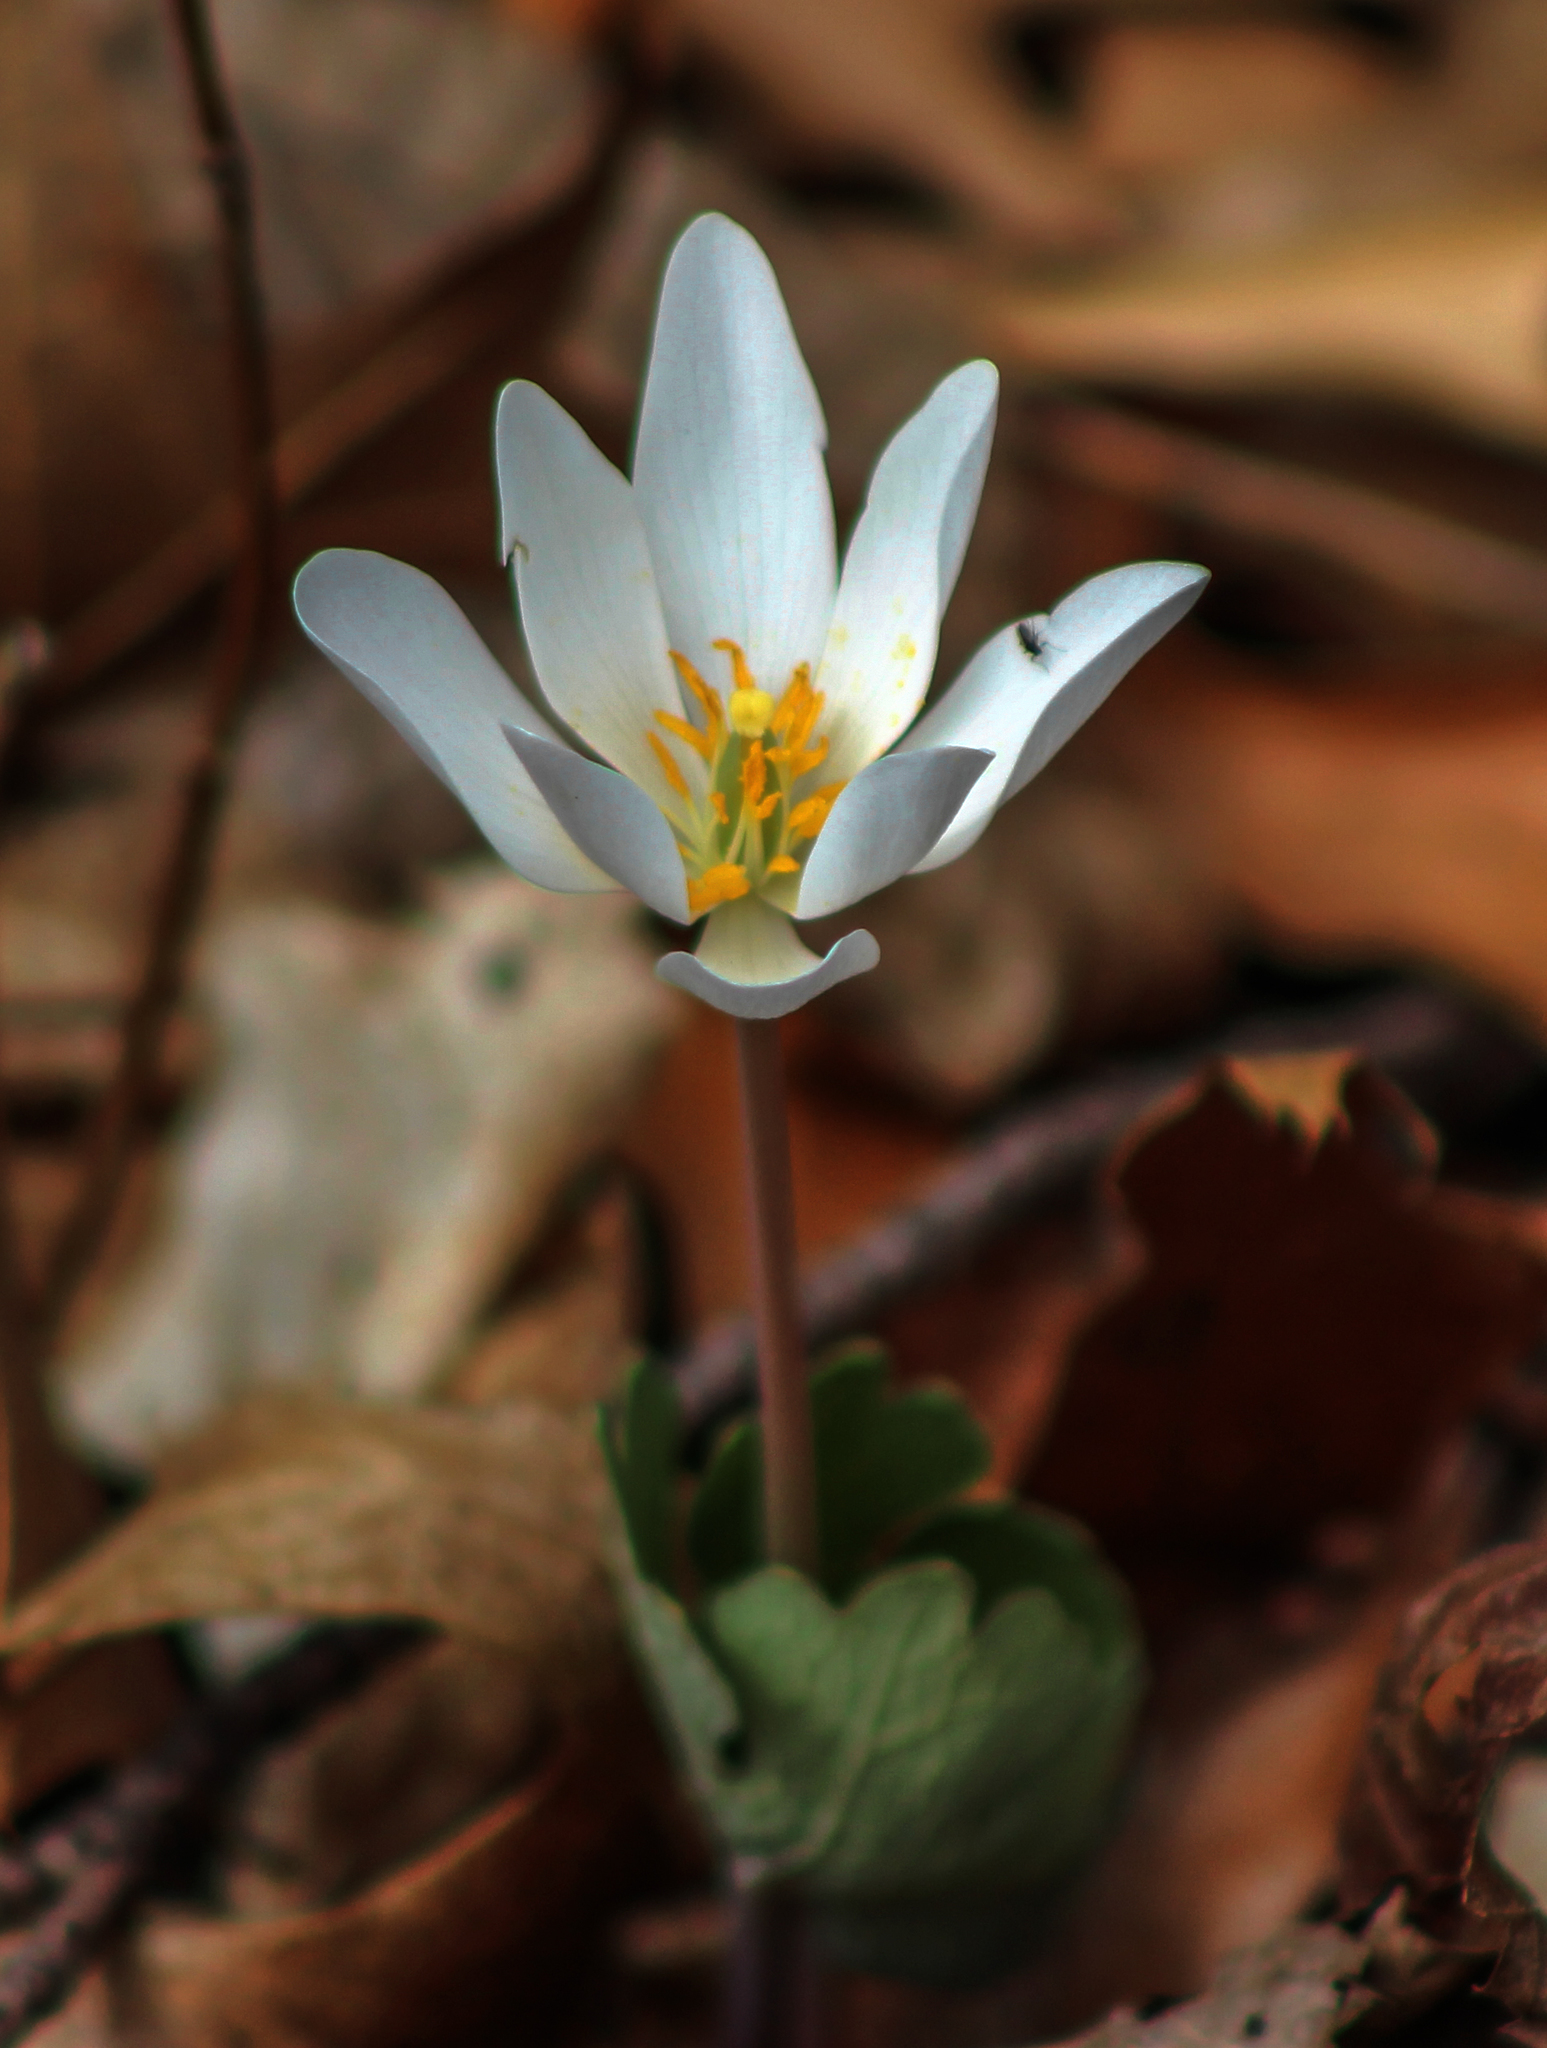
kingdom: Plantae
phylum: Tracheophyta
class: Magnoliopsida
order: Ranunculales
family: Papaveraceae
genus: Sanguinaria
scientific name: Sanguinaria canadensis
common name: Bloodroot
